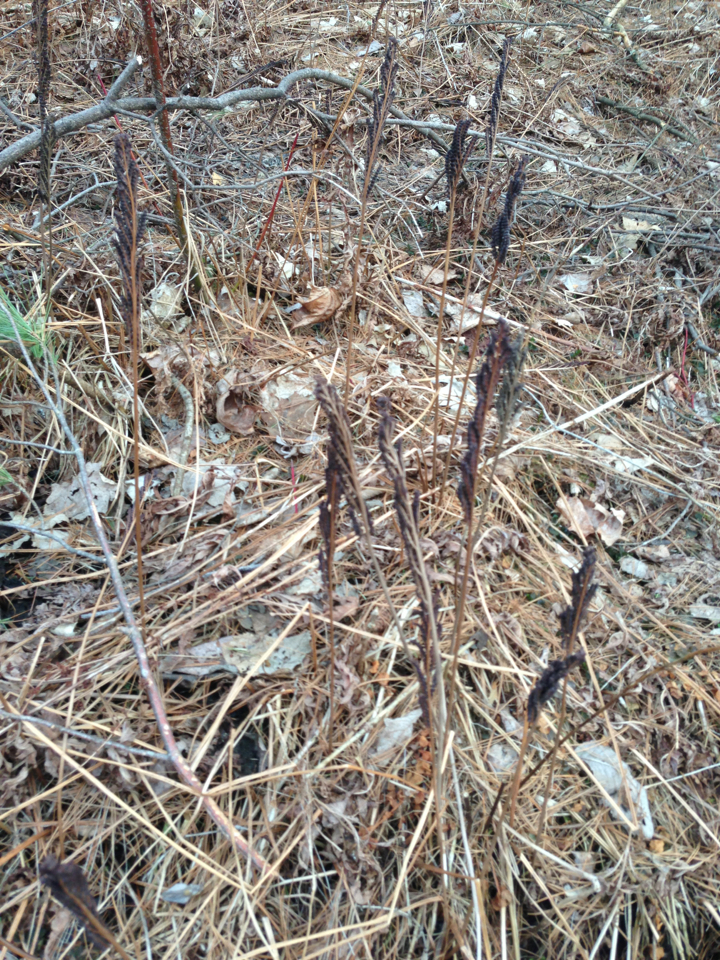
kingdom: Plantae
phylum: Tracheophyta
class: Polypodiopsida
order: Polypodiales
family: Onocleaceae
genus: Onoclea
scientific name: Onoclea sensibilis
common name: Sensitive fern
